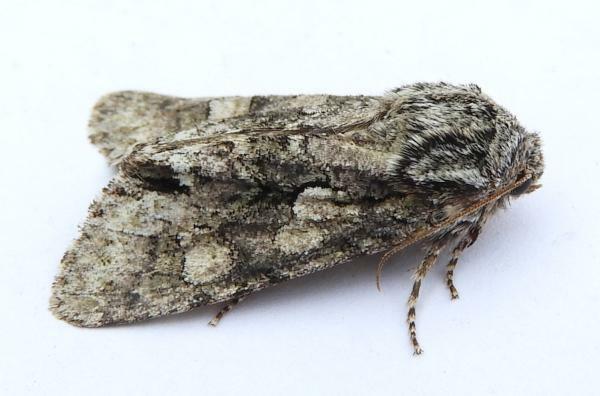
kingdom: Animalia
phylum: Arthropoda
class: Insecta
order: Lepidoptera
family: Noctuidae
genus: Psaphida
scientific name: Psaphida resumens
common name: Figure-eight sallow
